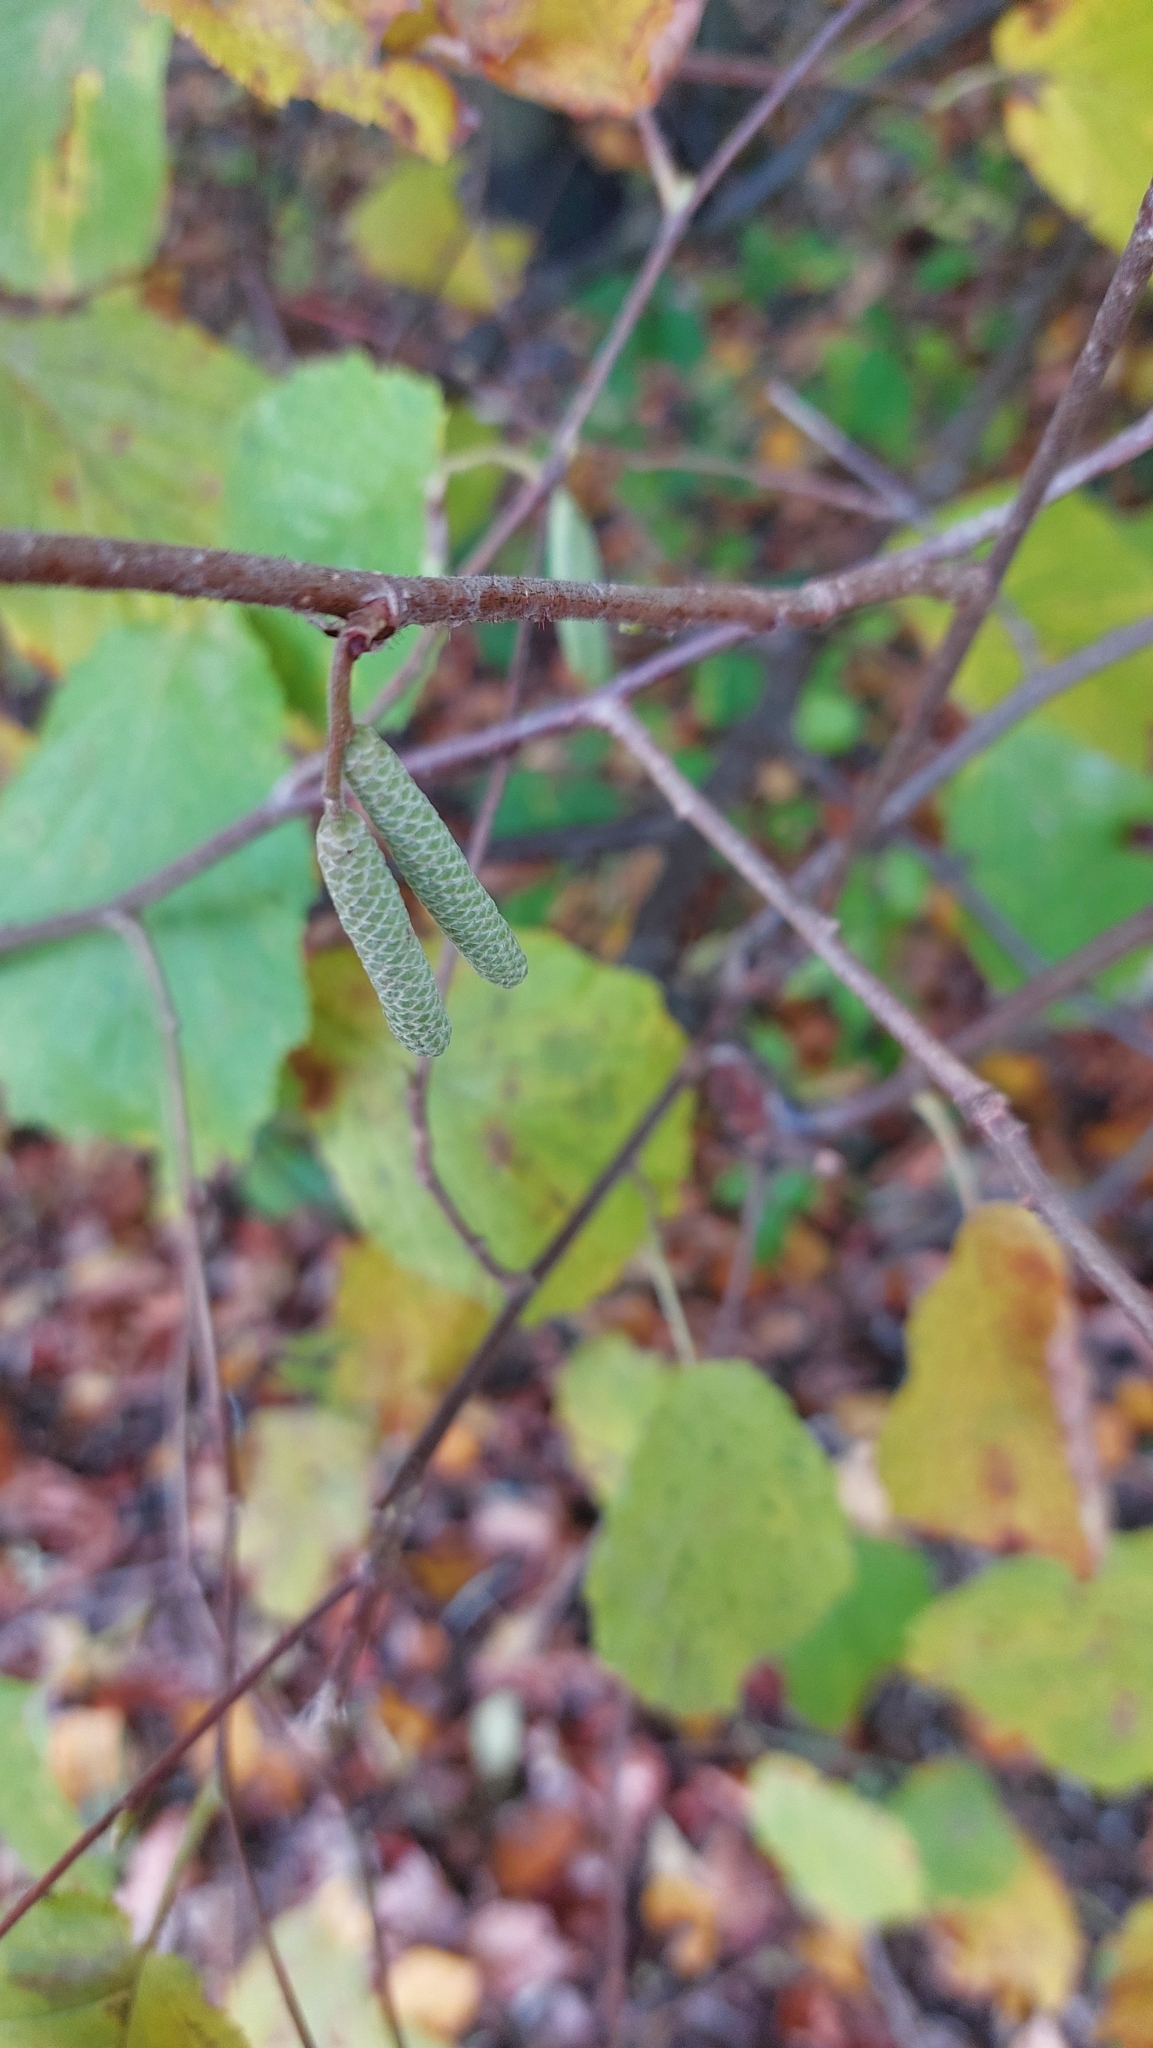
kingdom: Plantae
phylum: Tracheophyta
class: Magnoliopsida
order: Fagales
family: Betulaceae
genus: Corylus
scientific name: Corylus avellana
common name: European hazel
